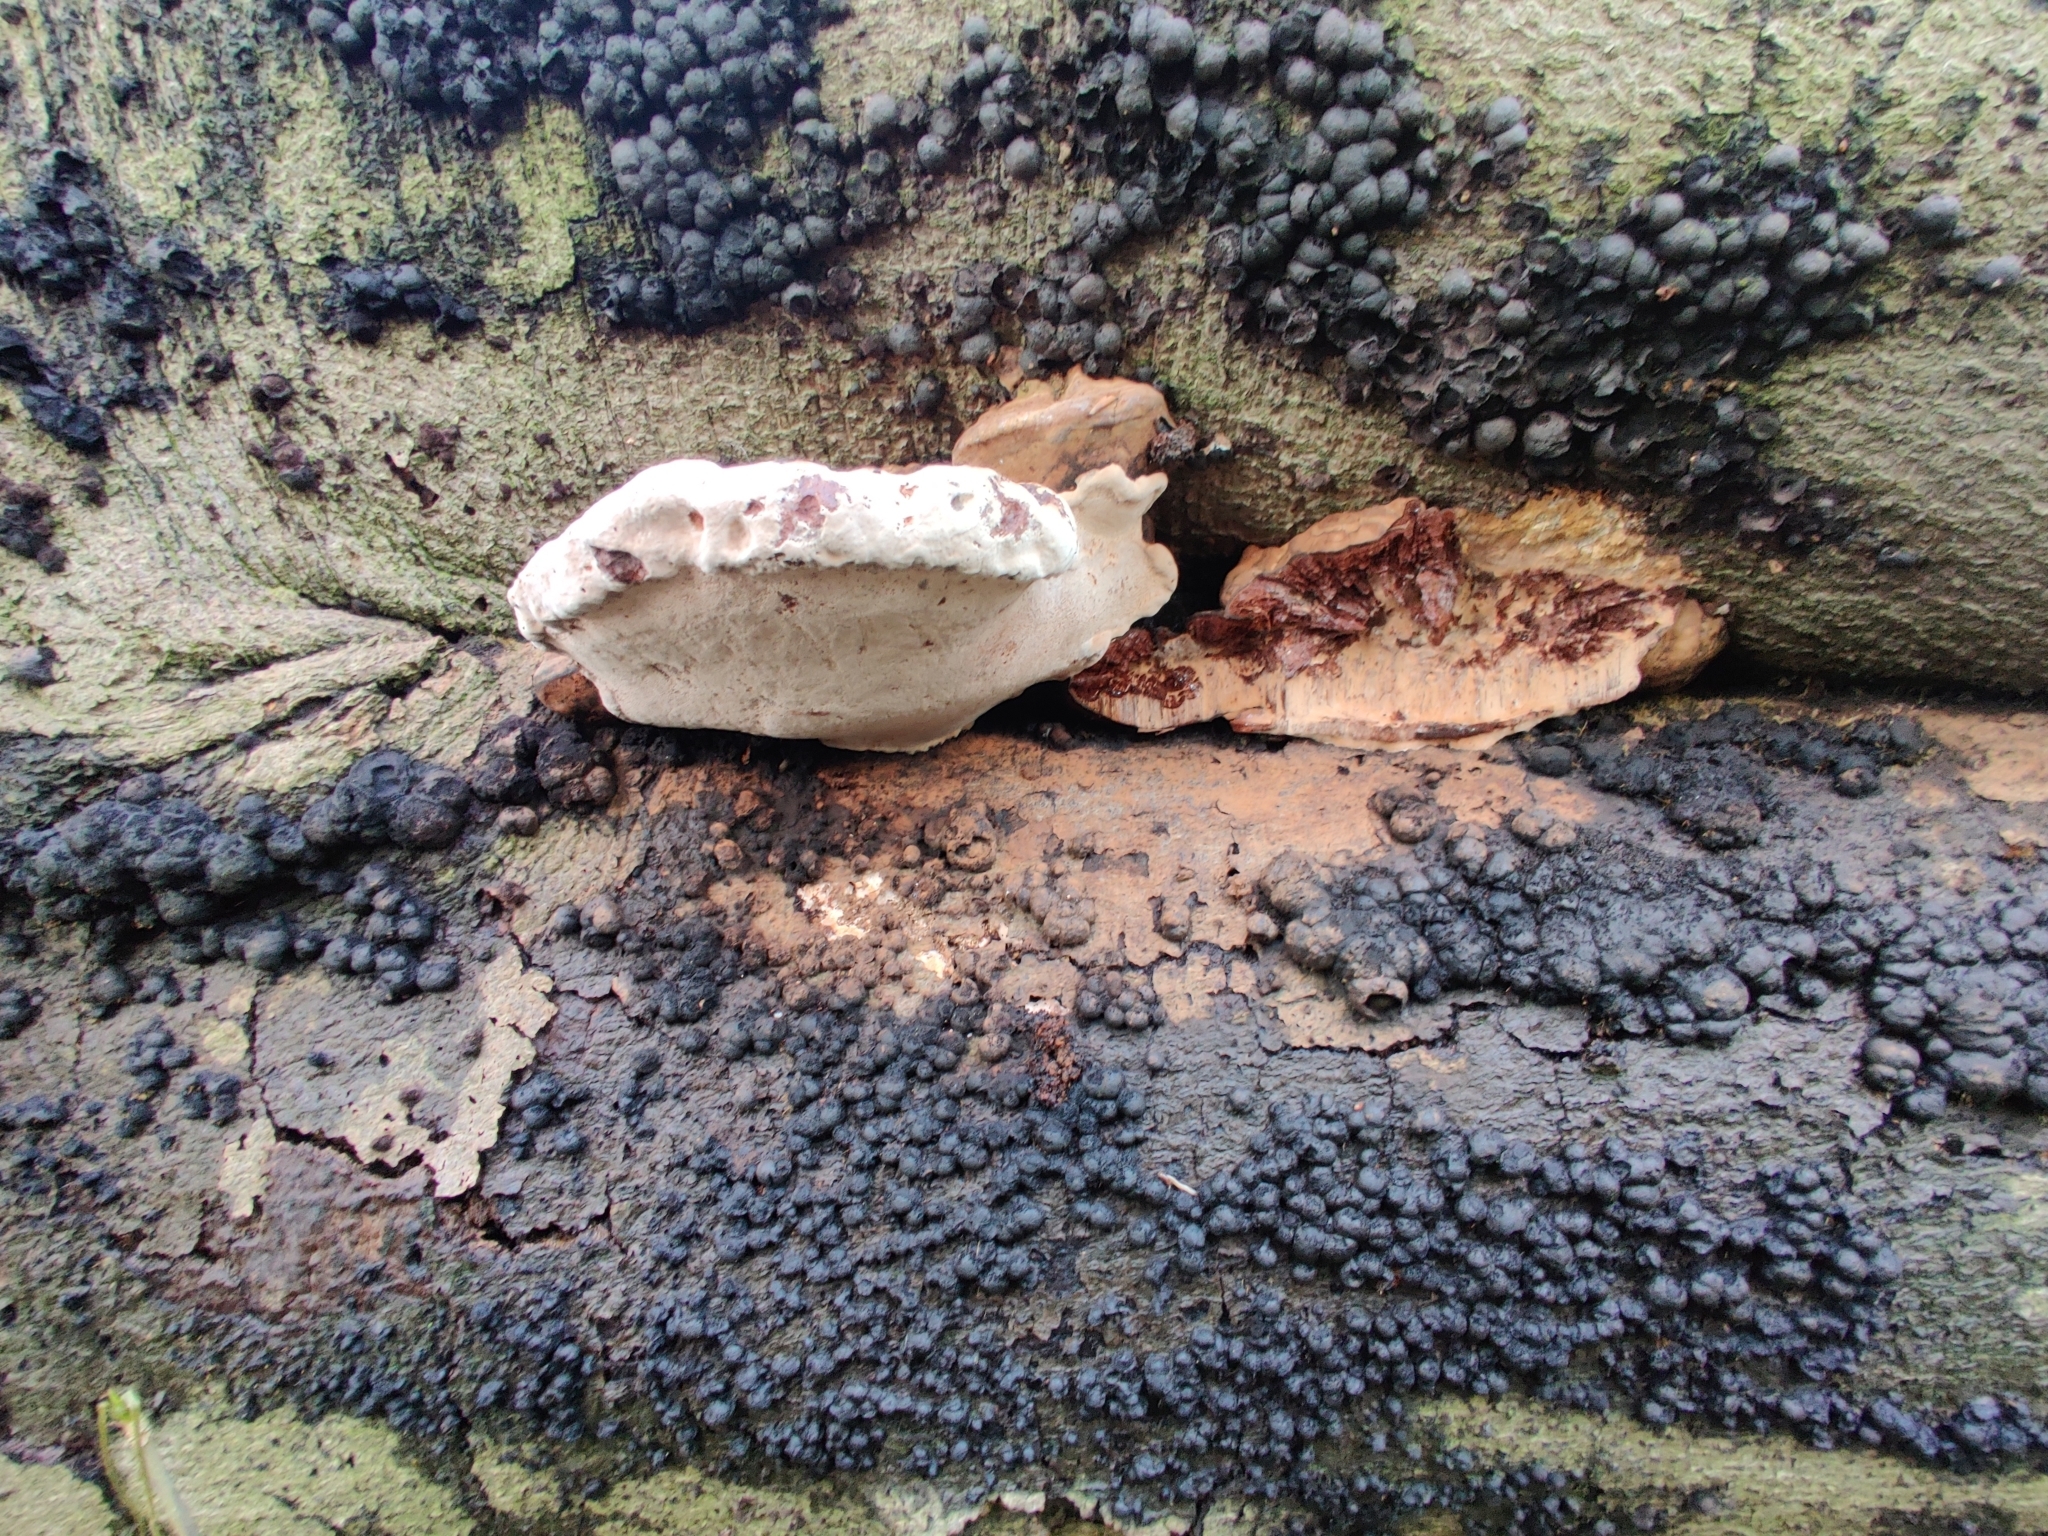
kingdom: Fungi
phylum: Ascomycota
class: Sordariomycetes
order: Xylariales
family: Hypoxylaceae
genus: Hypoxylon
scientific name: Hypoxylon fragiforme
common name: Beech woodwart
